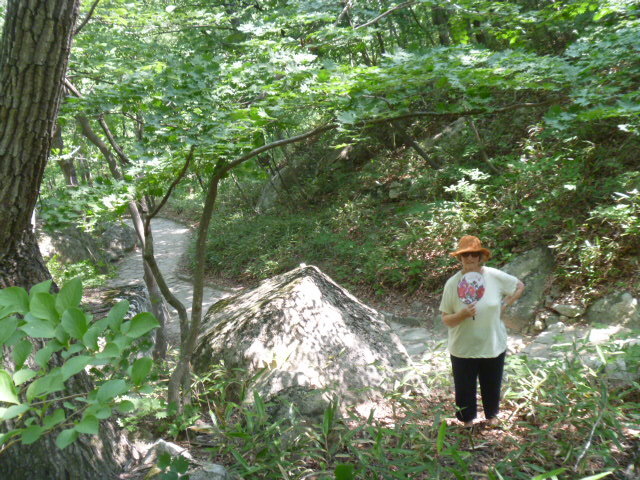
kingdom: Plantae
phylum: Tracheophyta
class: Magnoliopsida
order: Sapindales
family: Sapindaceae
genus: Acer
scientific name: Acer pseudosieboldianum
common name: Korean maple
